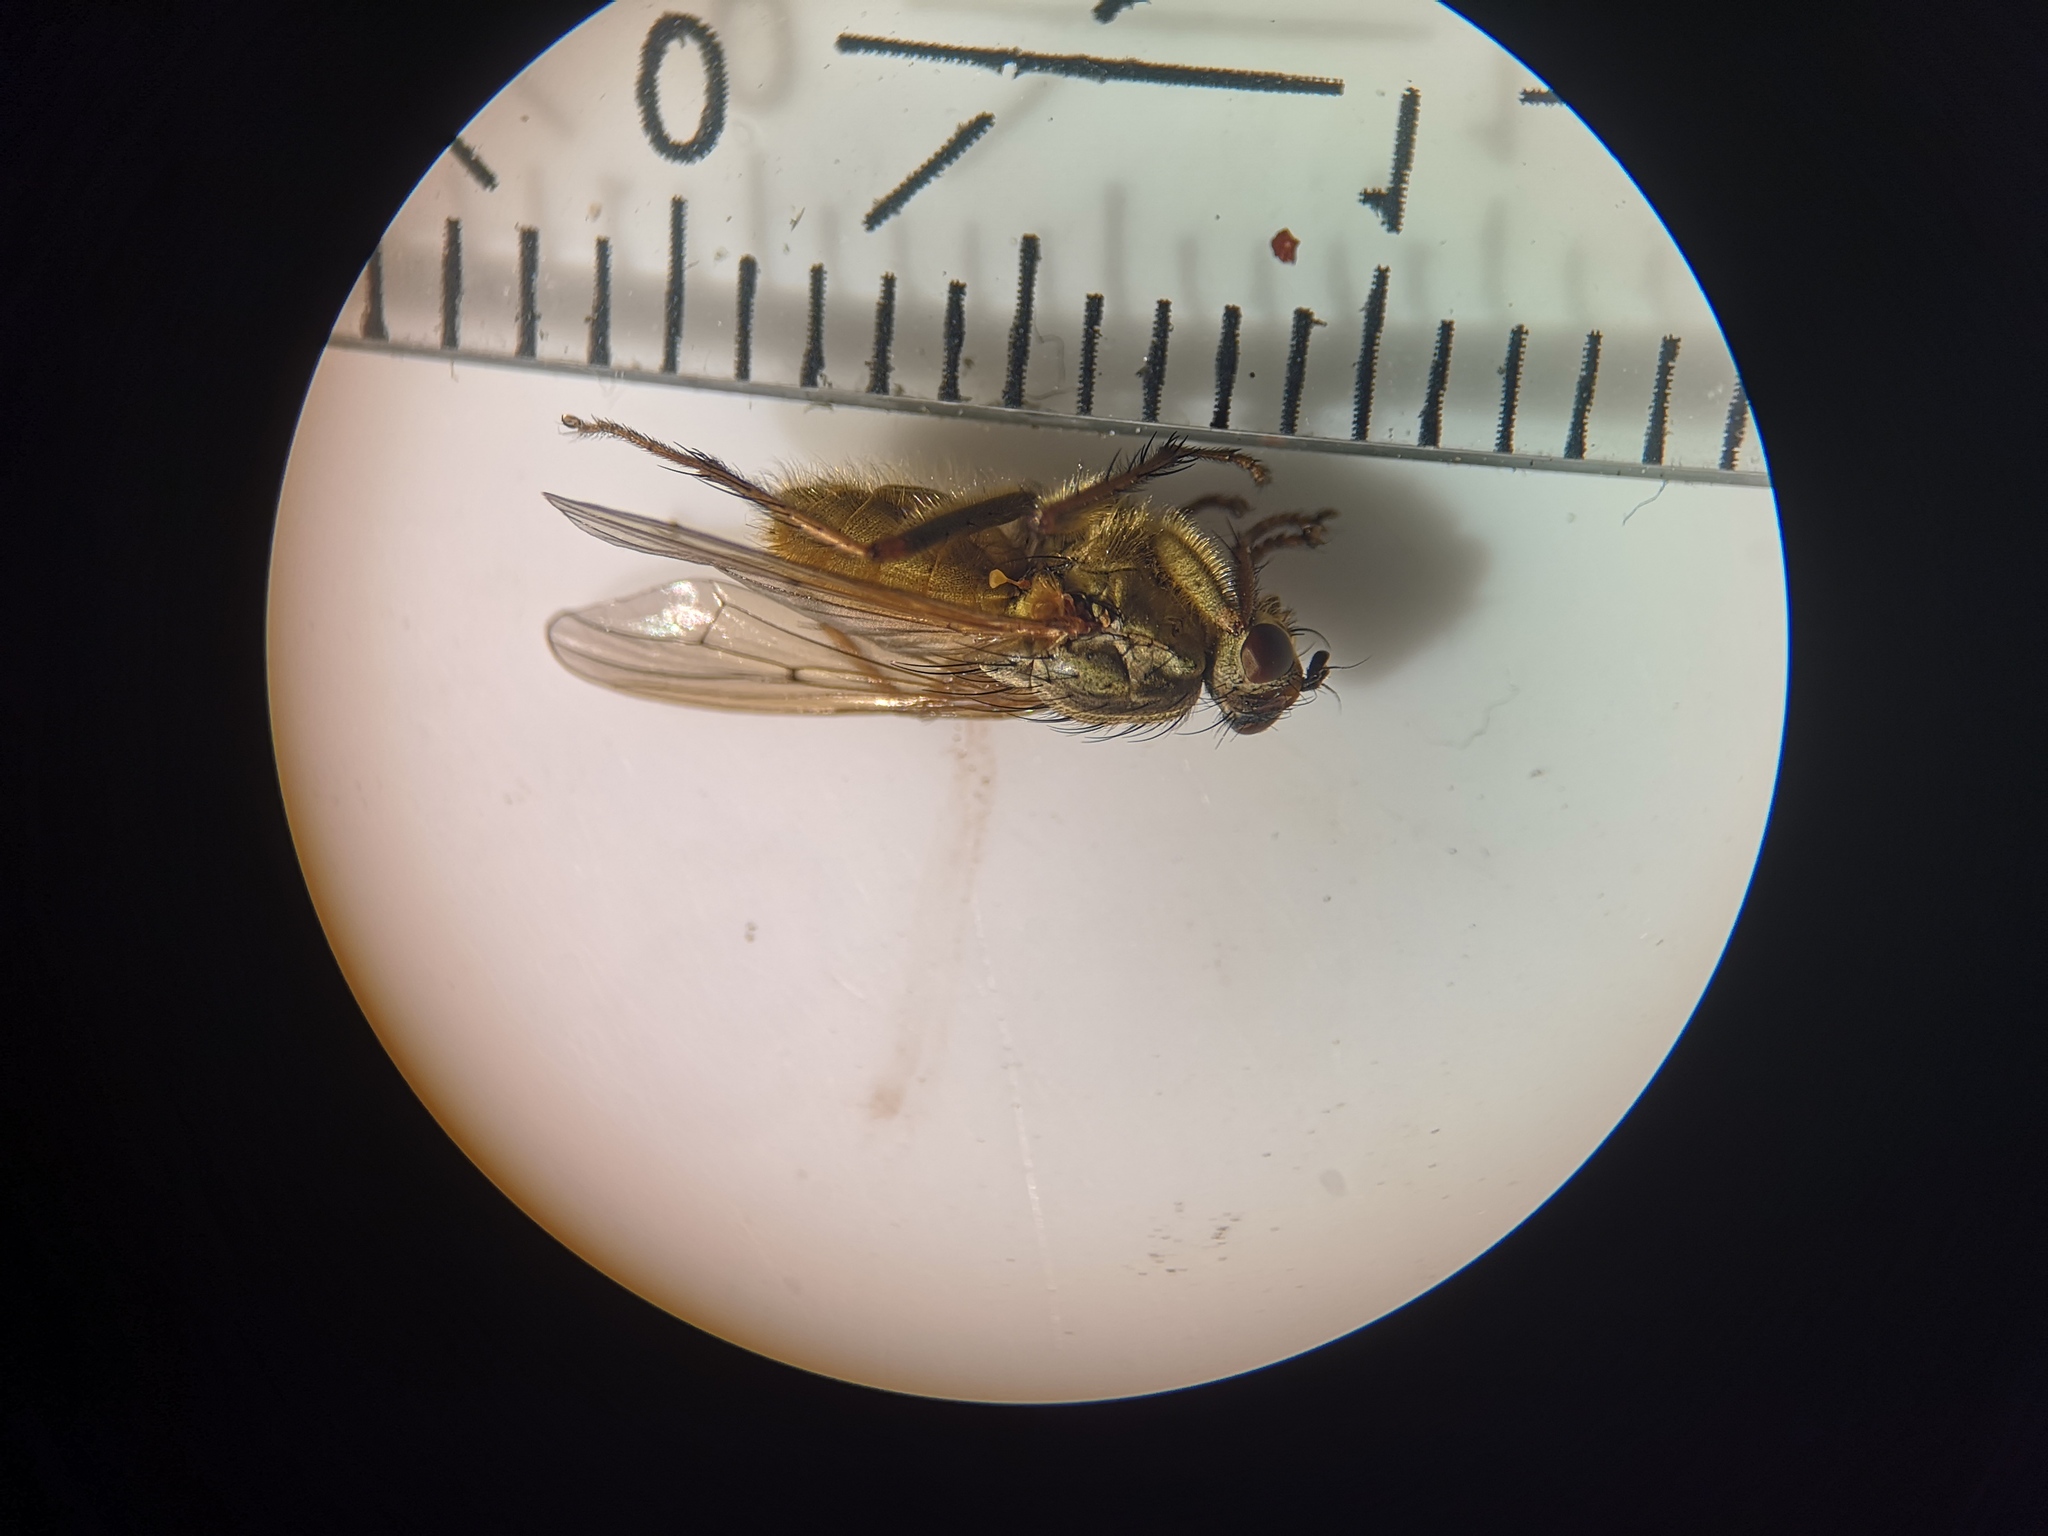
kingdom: Animalia
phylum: Arthropoda
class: Insecta
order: Diptera
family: Scathophagidae
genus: Scathophaga
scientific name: Scathophaga stercoraria
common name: Yellow dung fly
